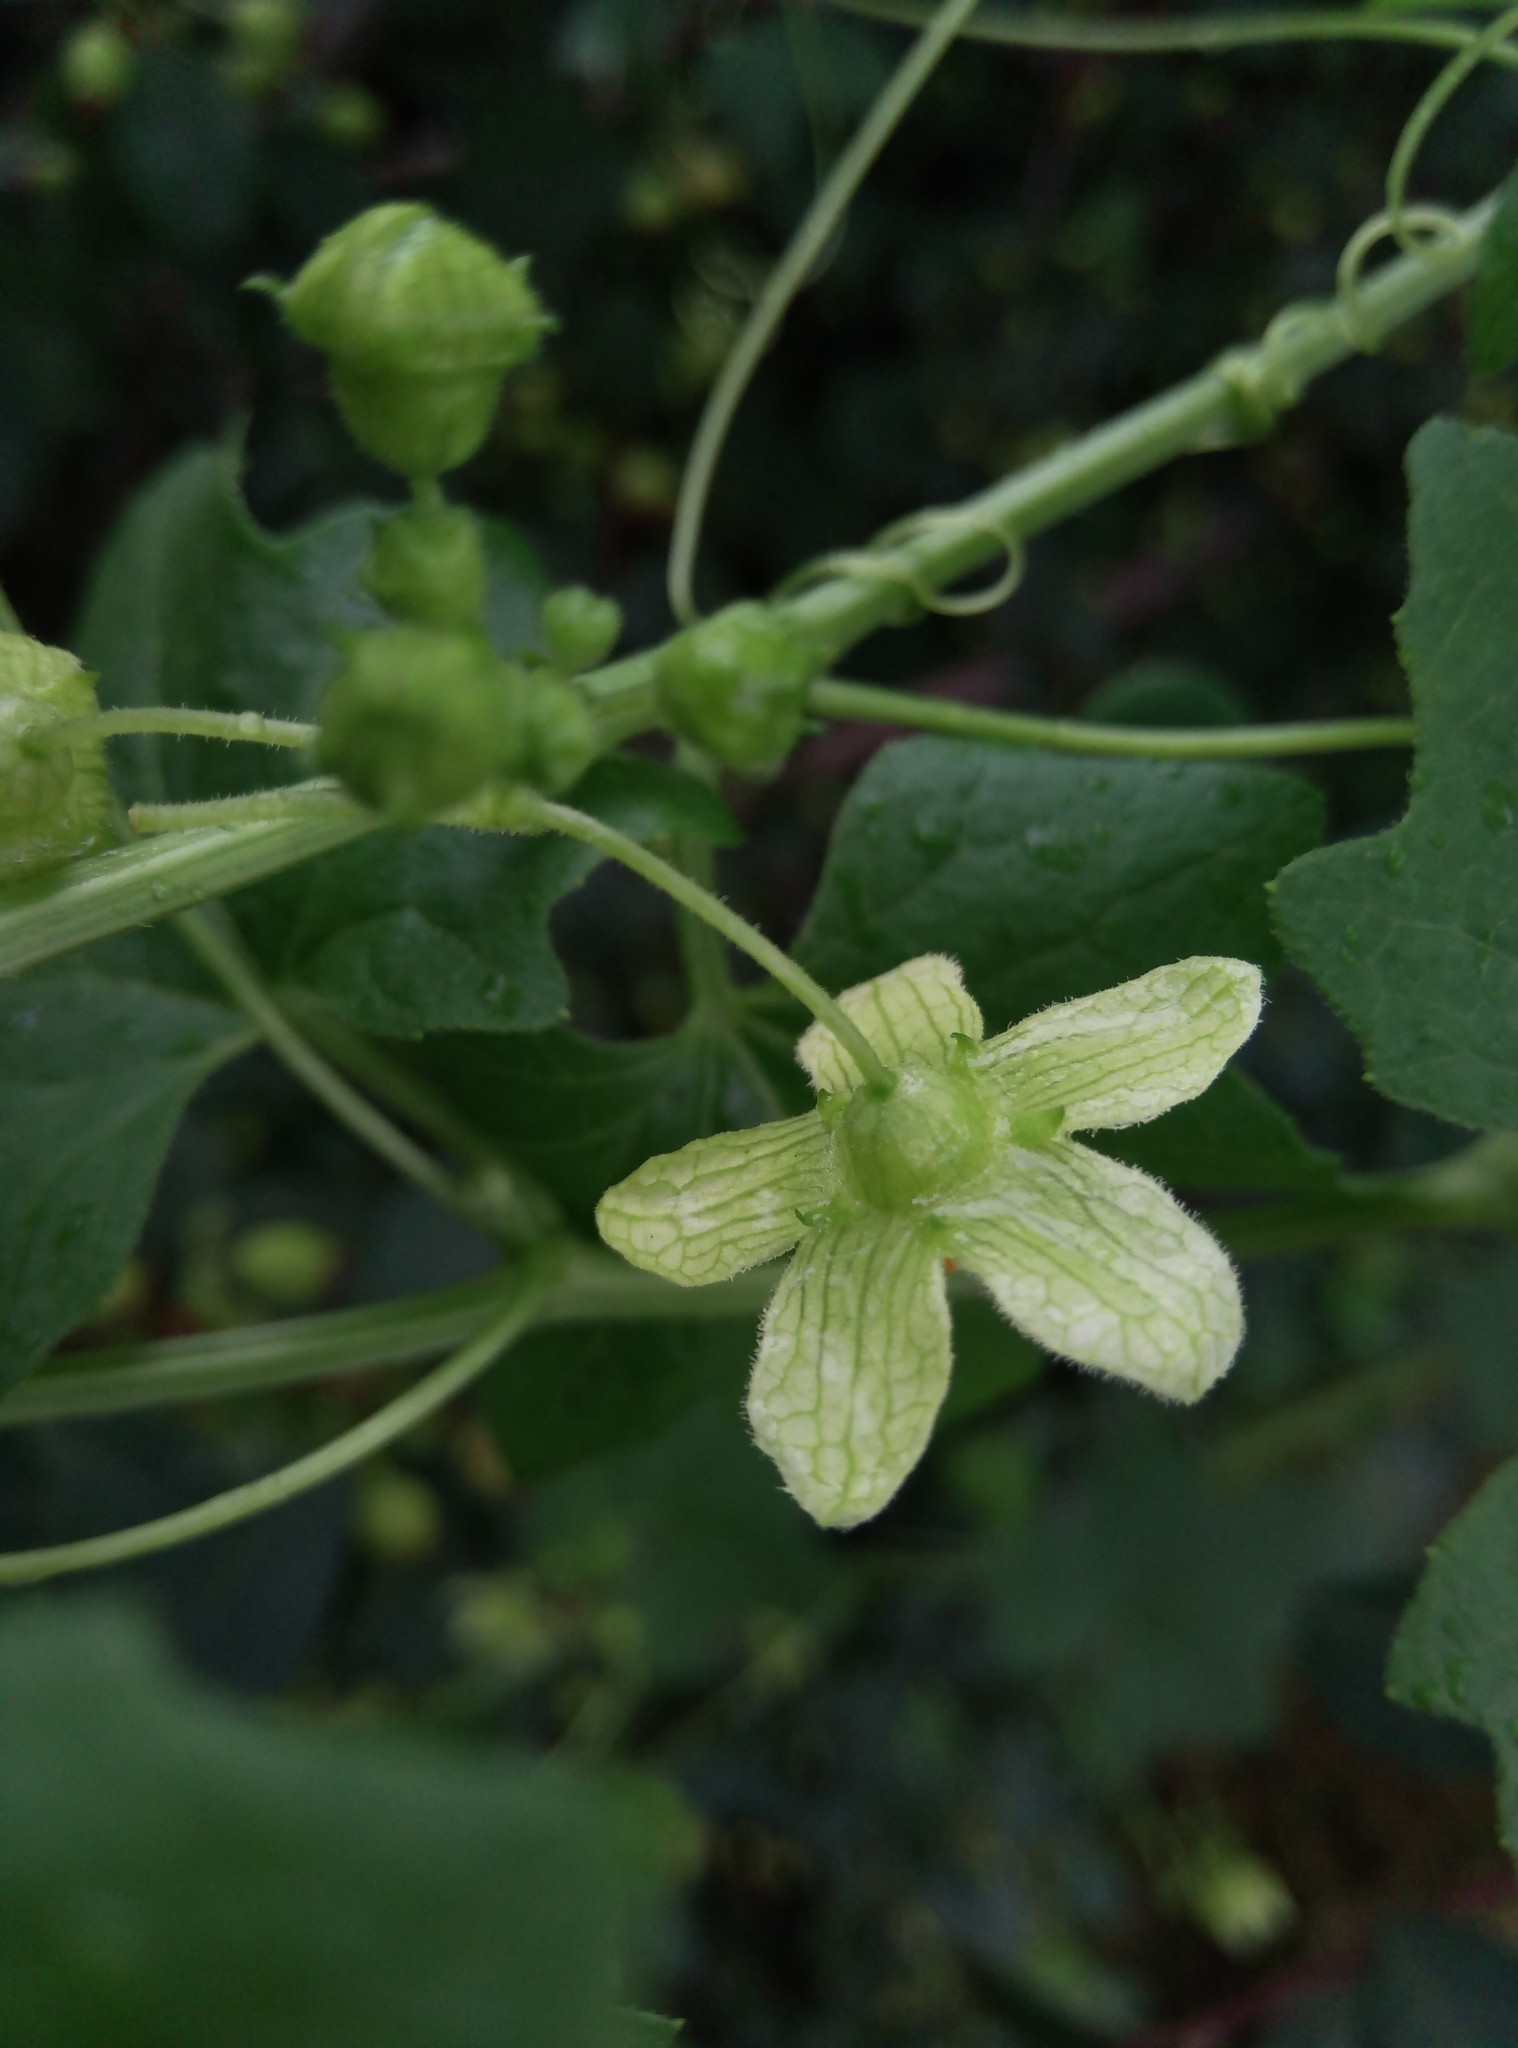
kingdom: Plantae
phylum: Tracheophyta
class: Magnoliopsida
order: Cucurbitales
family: Cucurbitaceae
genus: Bryonia
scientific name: Bryonia cretica
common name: Cretan bryony
